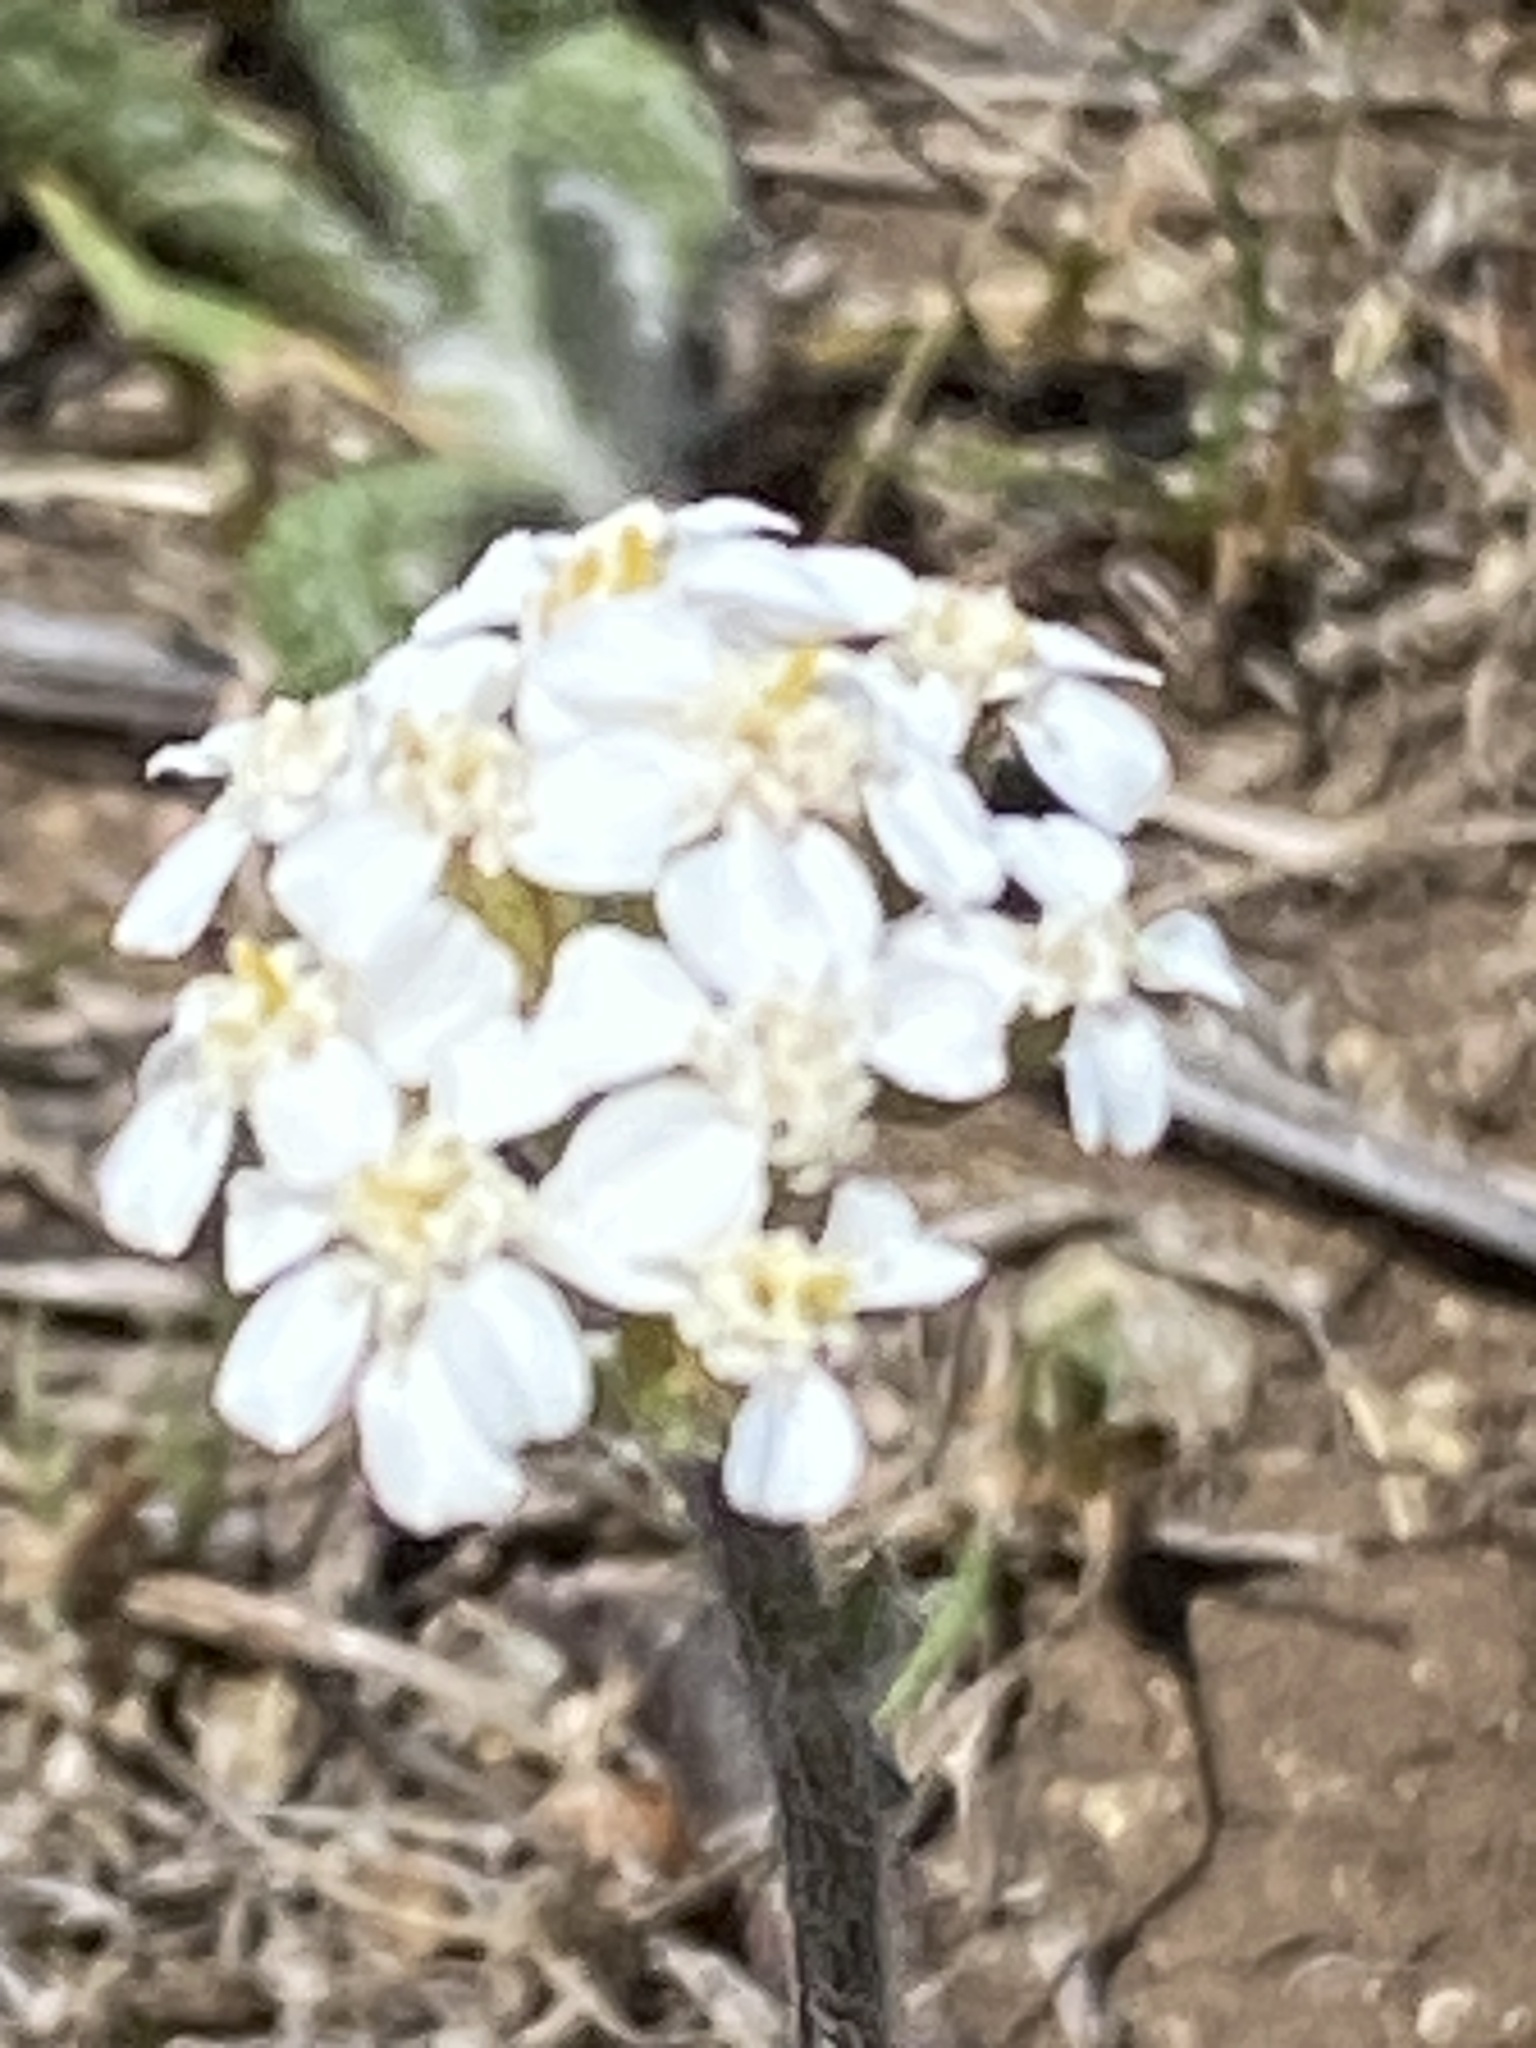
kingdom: Plantae
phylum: Tracheophyta
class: Magnoliopsida
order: Asterales
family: Asteraceae
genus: Achillea
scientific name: Achillea millefolium
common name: Yarrow
